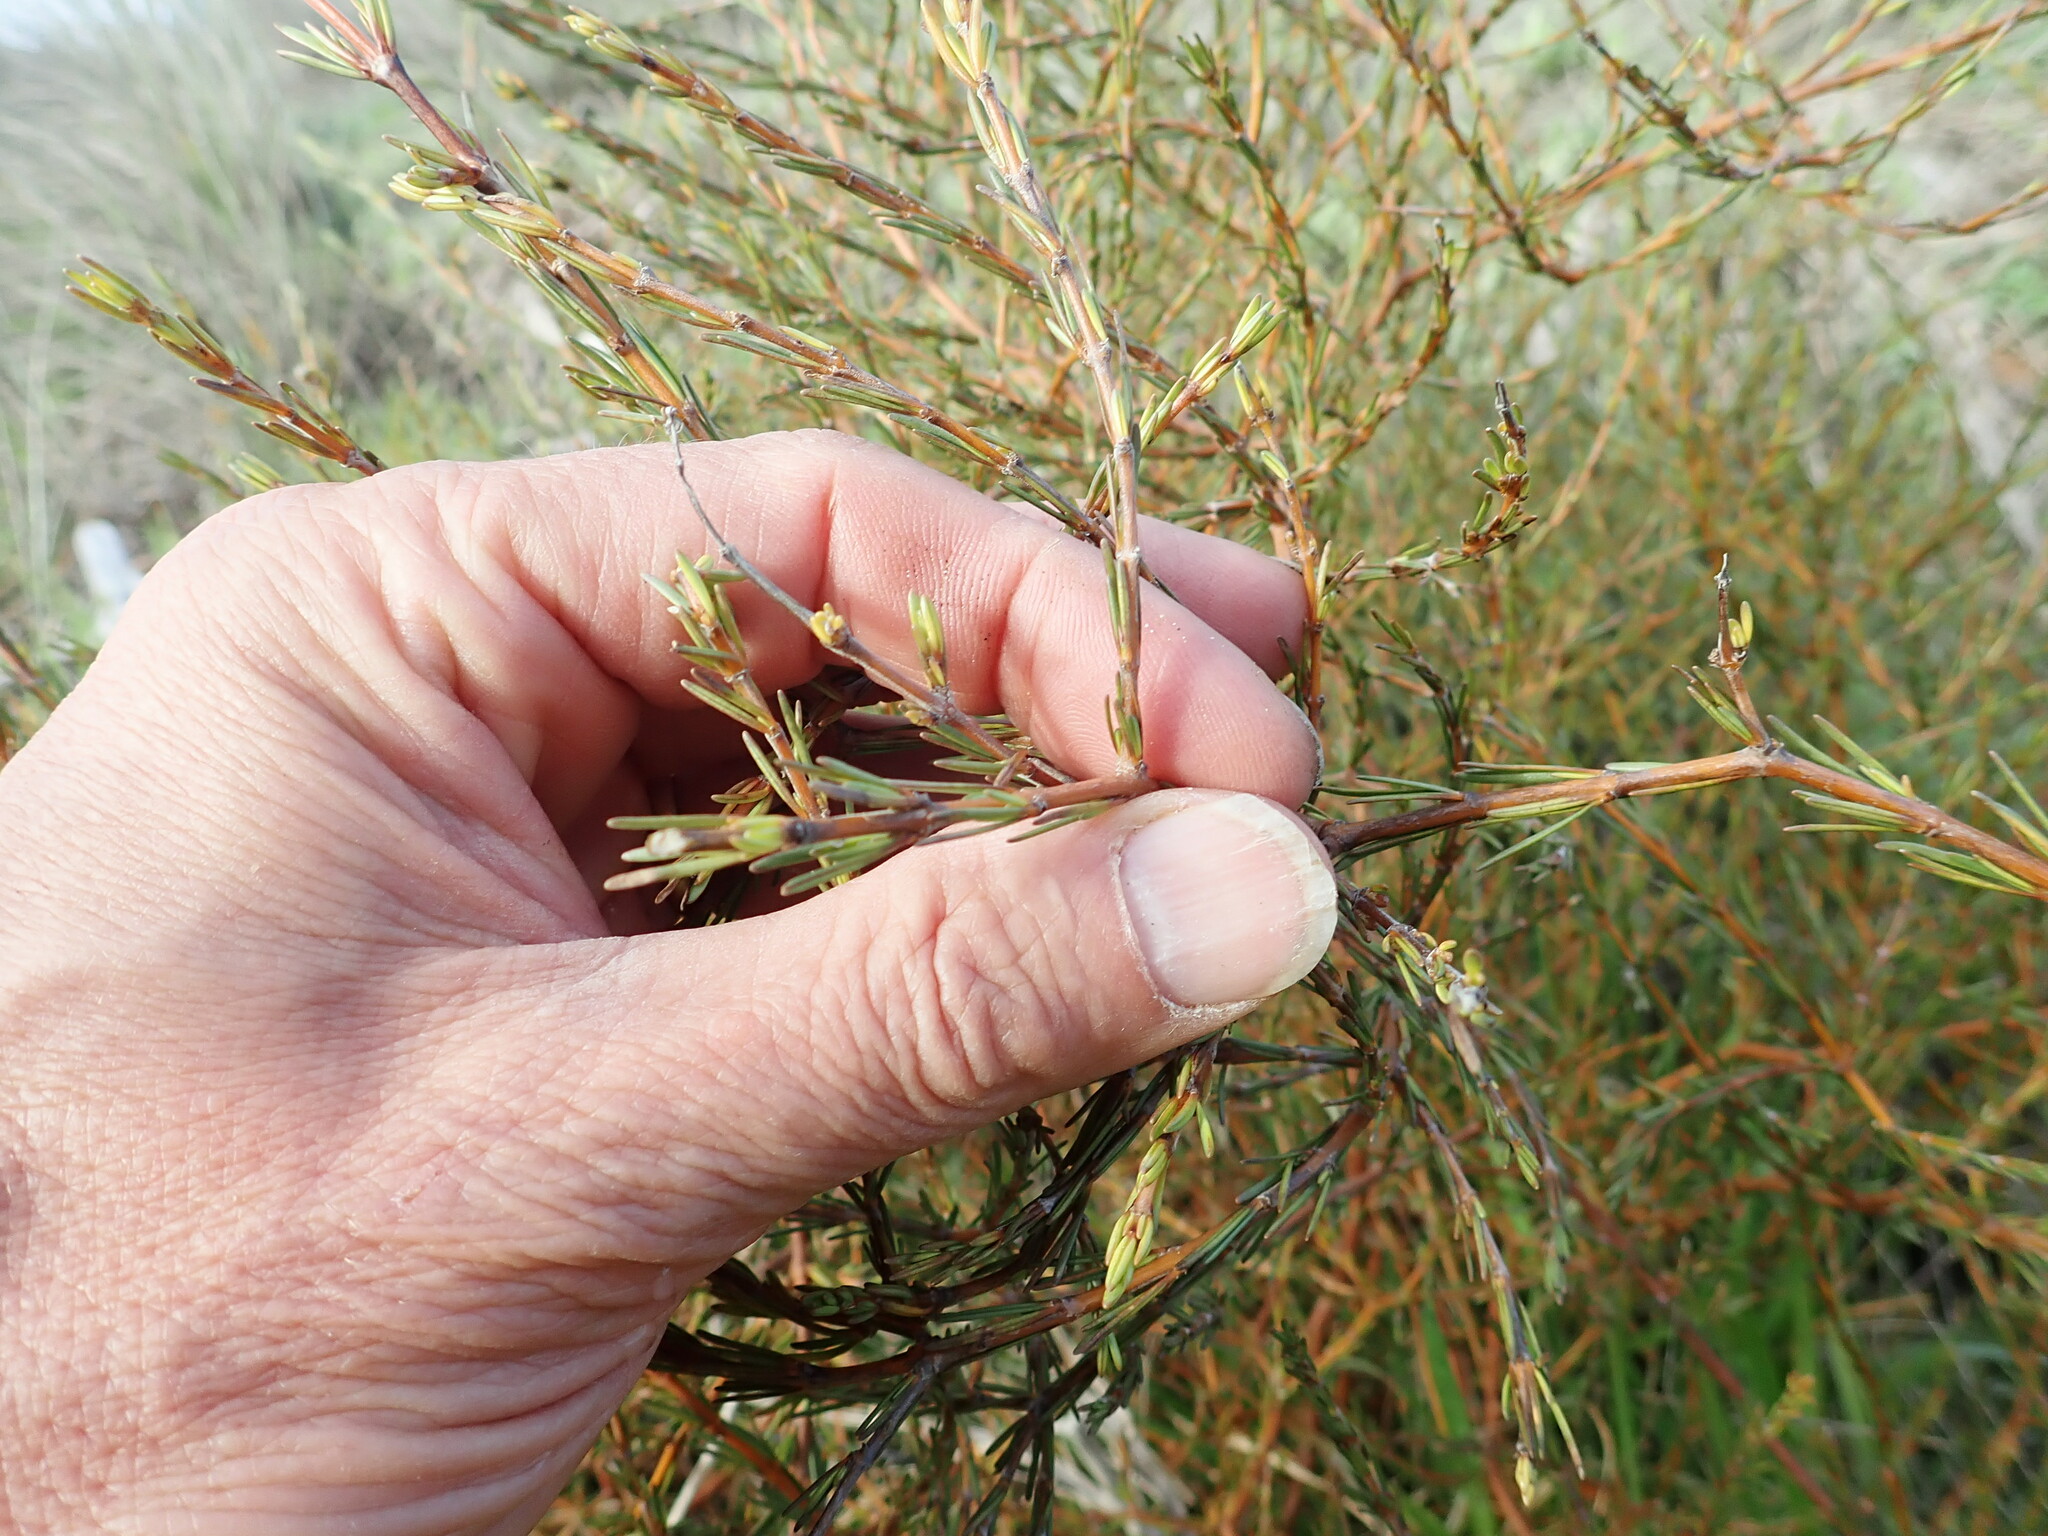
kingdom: Plantae
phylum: Tracheophyta
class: Magnoliopsida
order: Gentianales
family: Rubiaceae
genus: Coprosma
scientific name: Coprosma acerosa
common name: Sand coprosma
